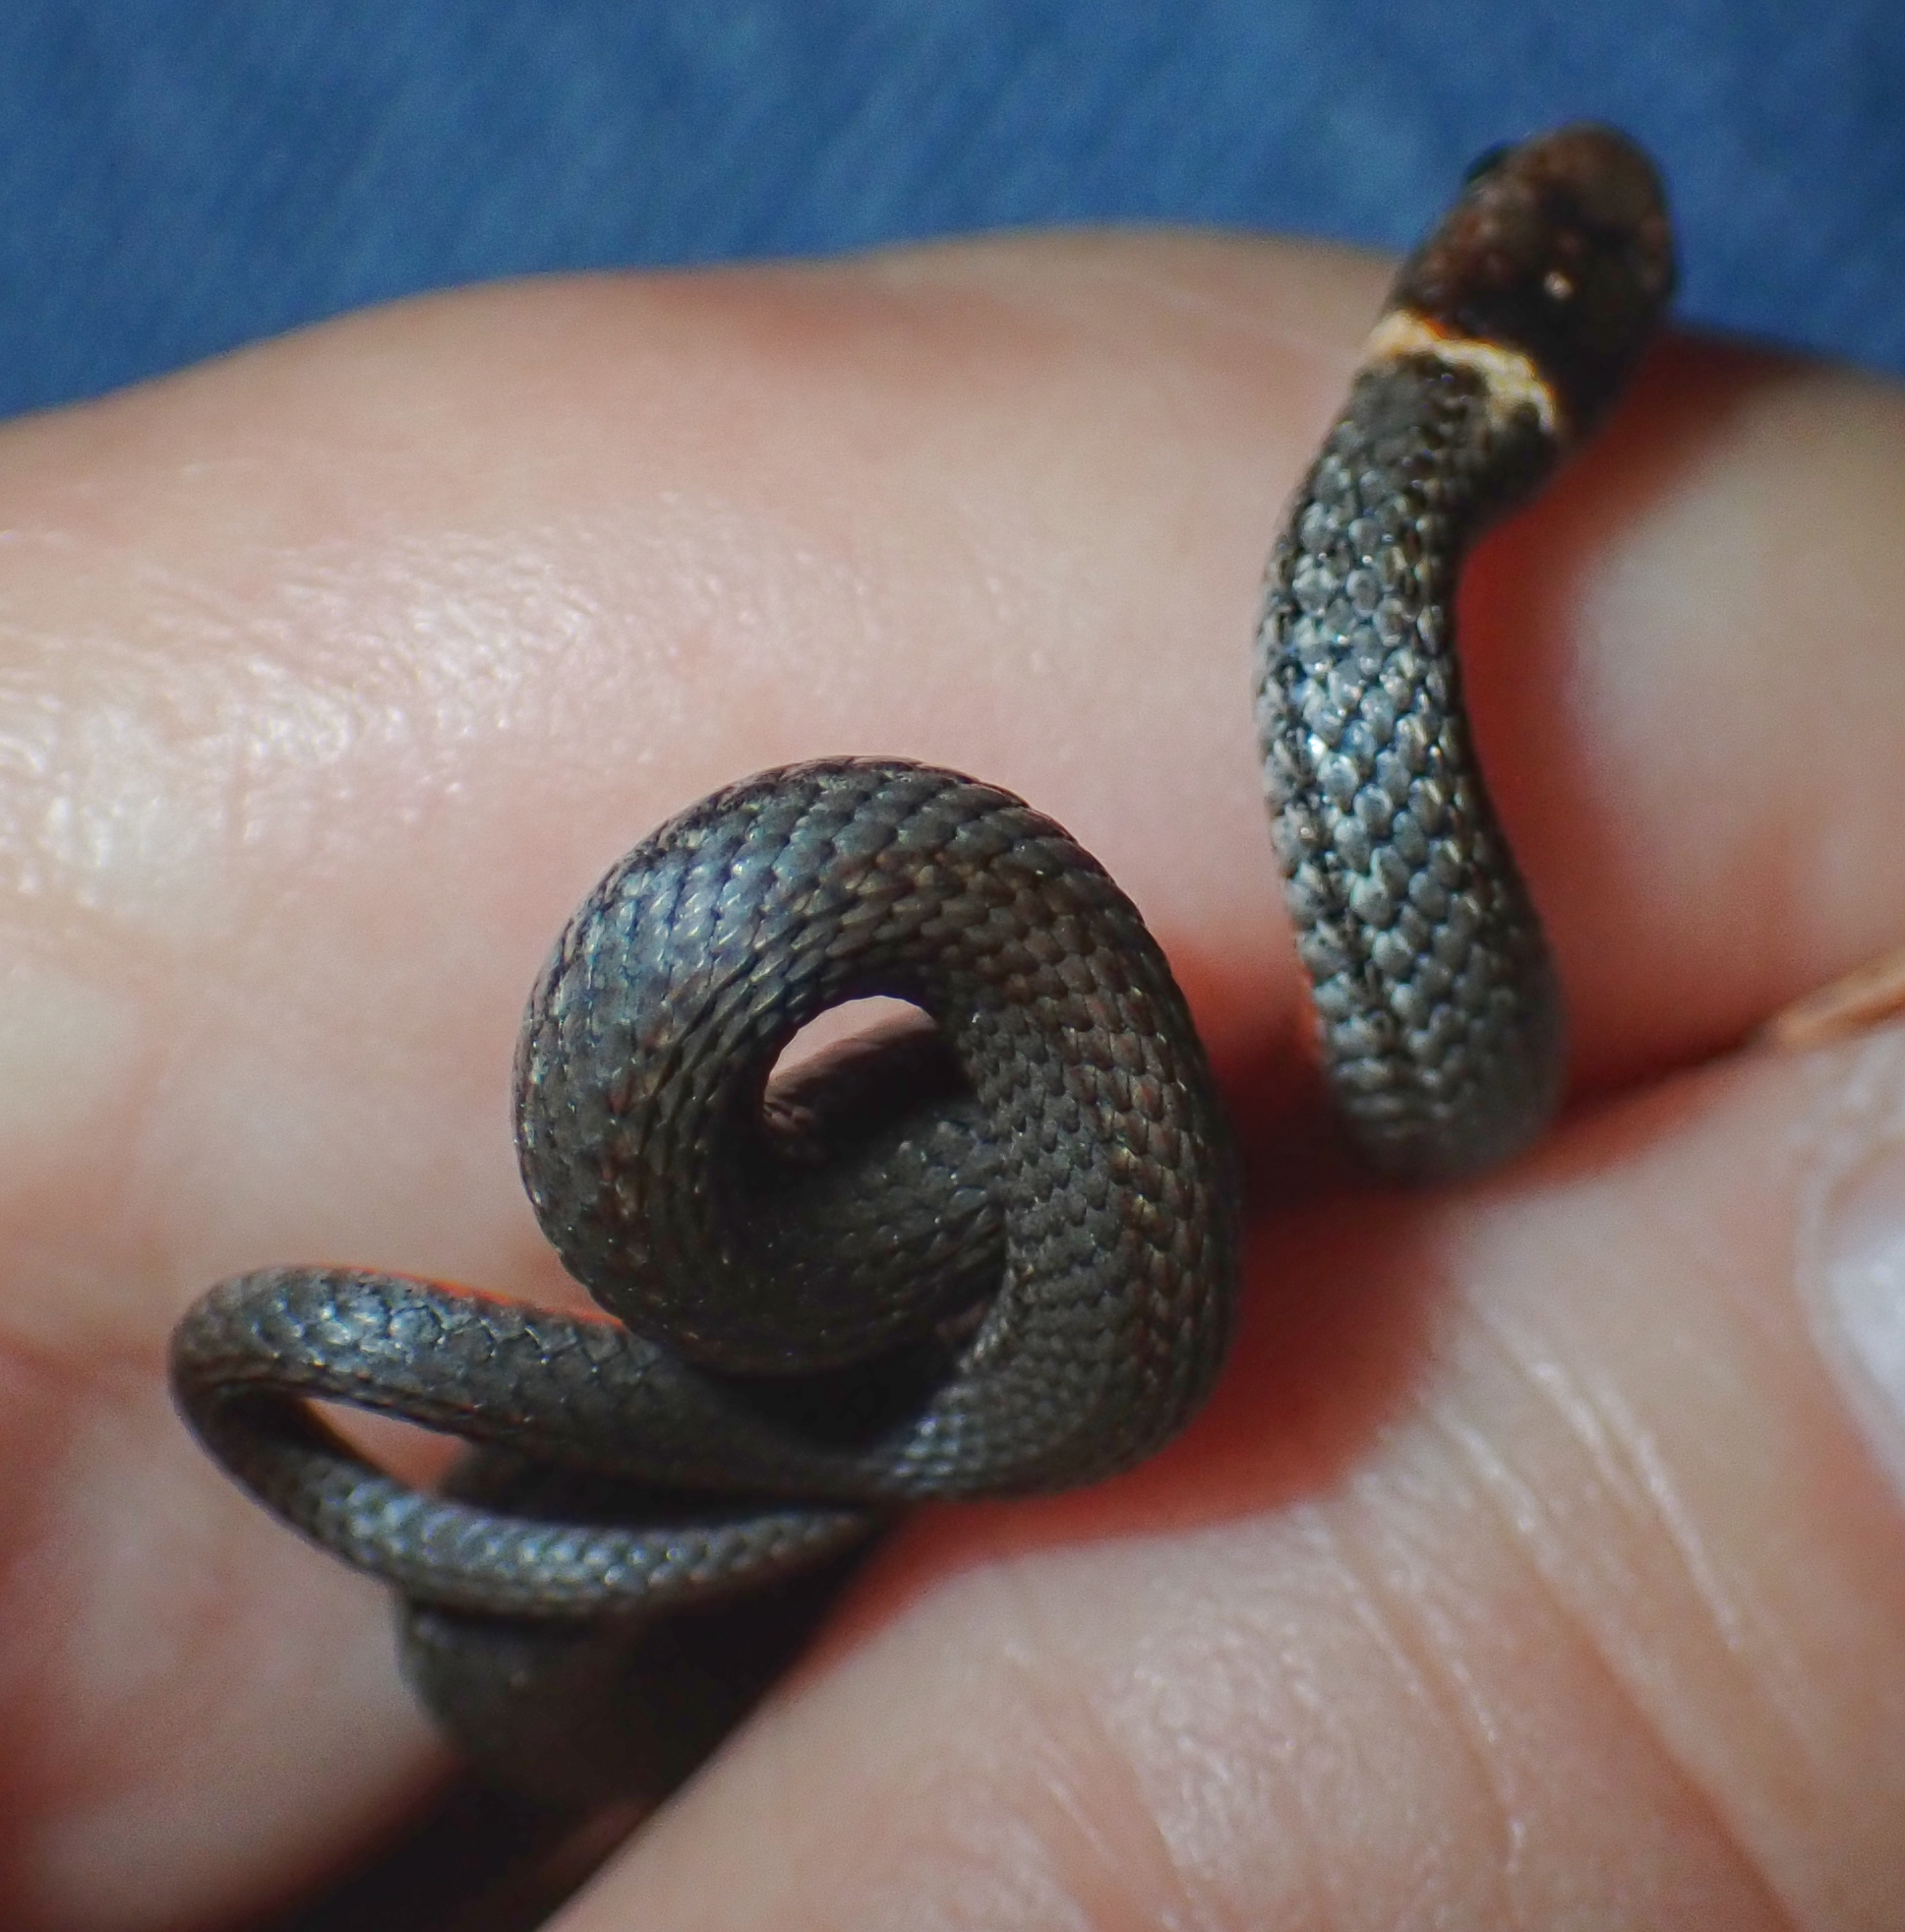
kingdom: Animalia
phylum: Chordata
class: Squamata
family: Colubridae
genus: Storeria
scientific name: Storeria occipitomaculata
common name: Redbelly snake
